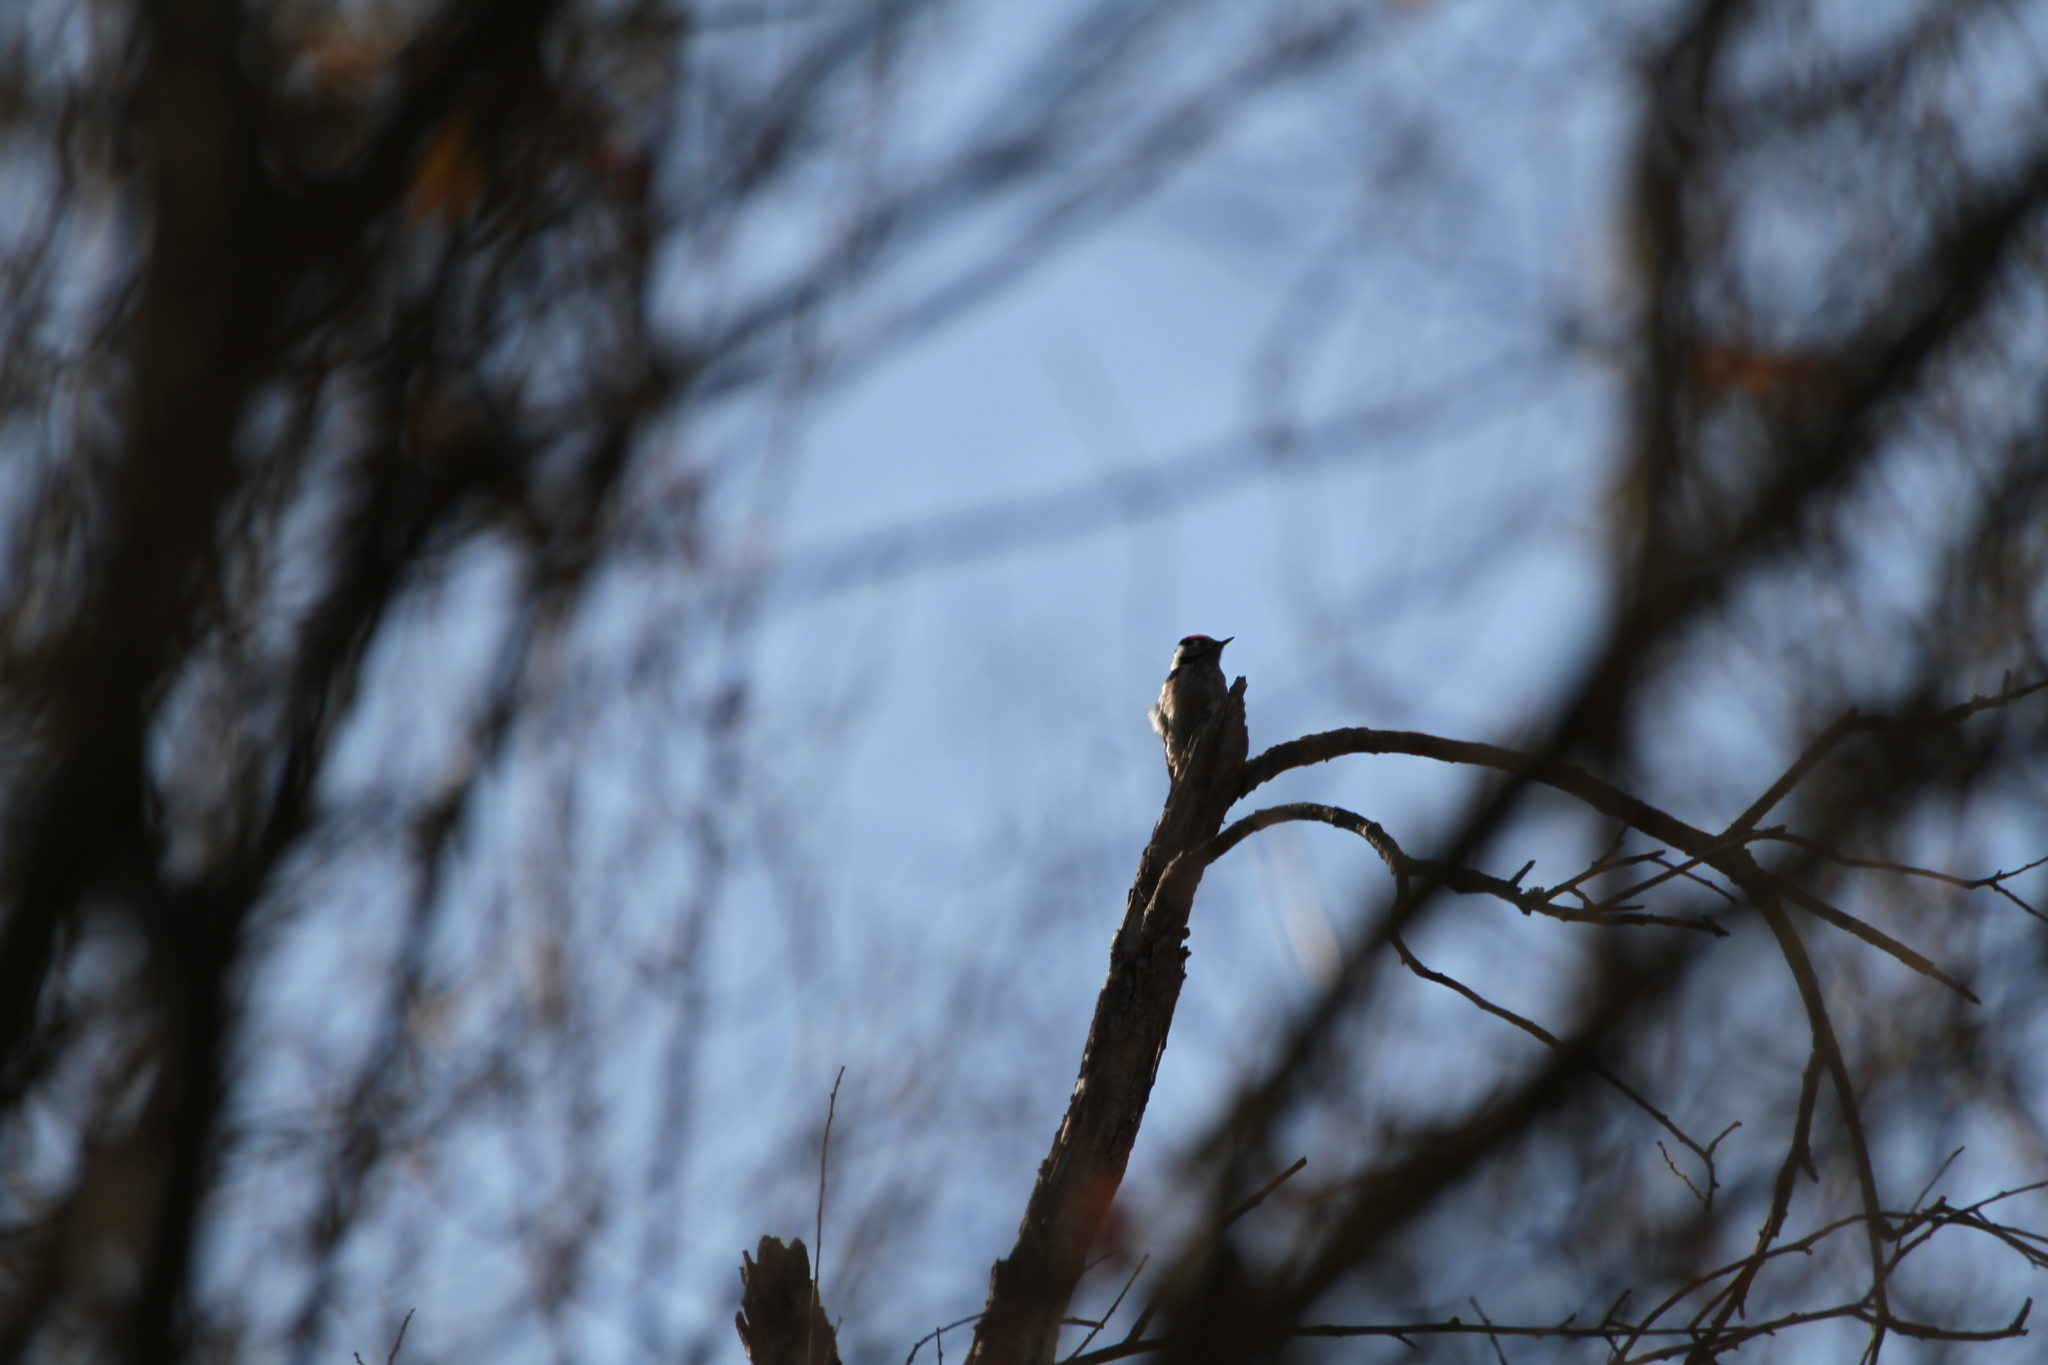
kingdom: Animalia
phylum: Chordata
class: Aves
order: Piciformes
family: Picidae
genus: Dryobates
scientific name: Dryobates minor
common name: Lesser spotted woodpecker
